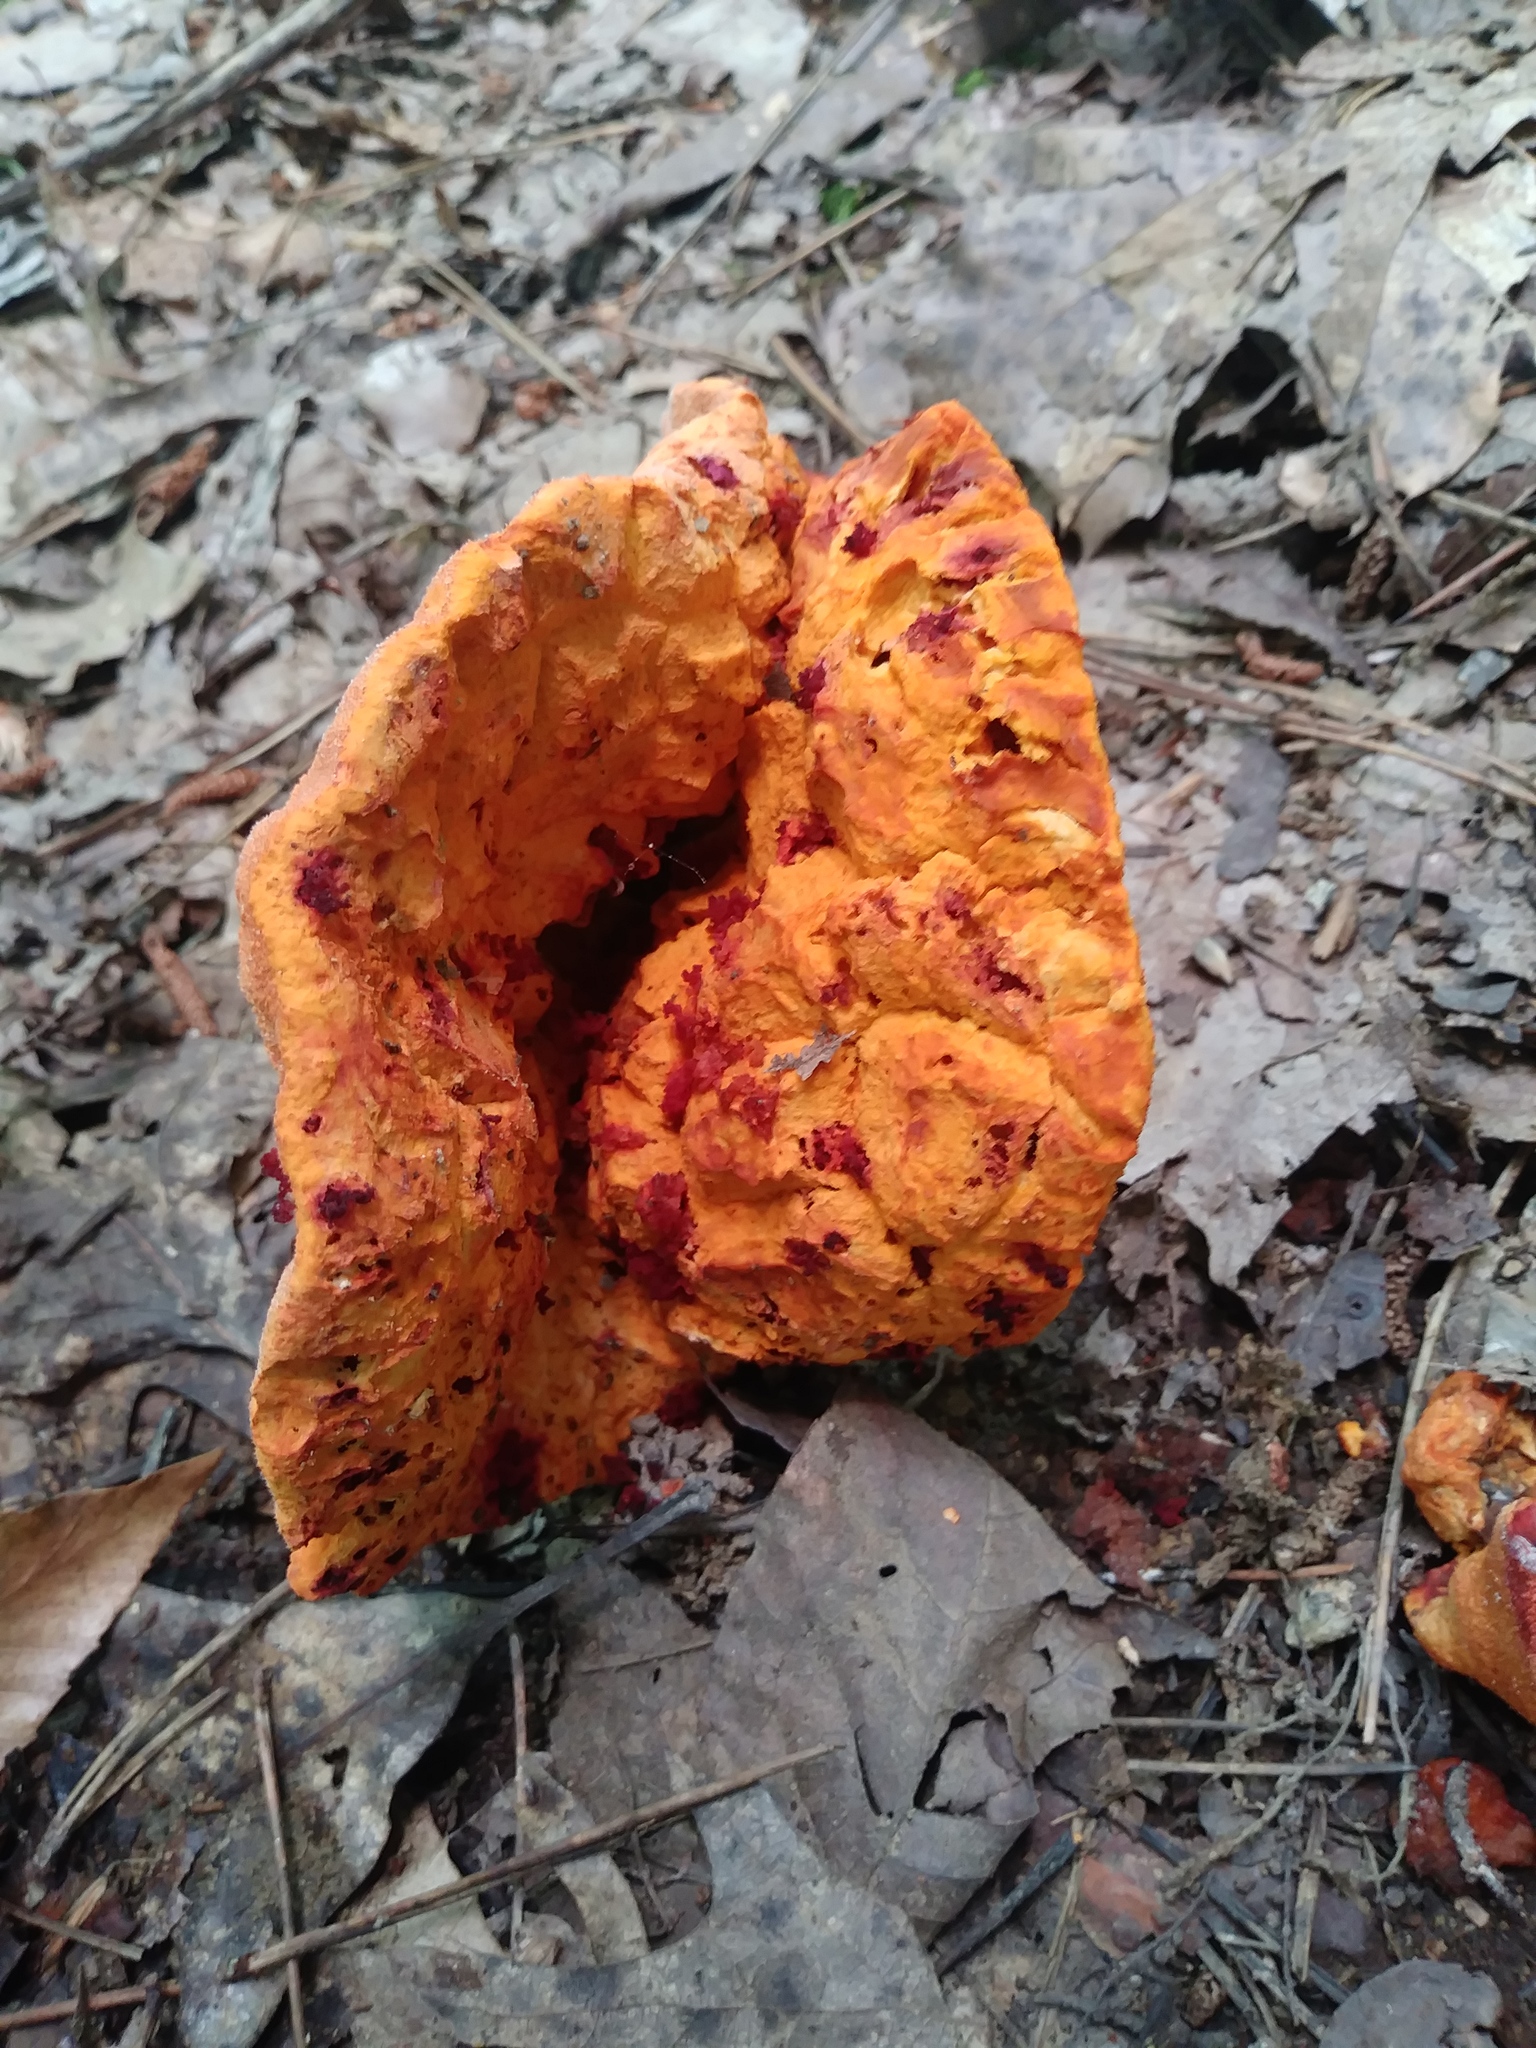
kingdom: Fungi
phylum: Ascomycota
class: Sordariomycetes
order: Hypocreales
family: Hypocreaceae
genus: Hypomyces
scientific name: Hypomyces lactifluorum
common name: Lobster mushroom
